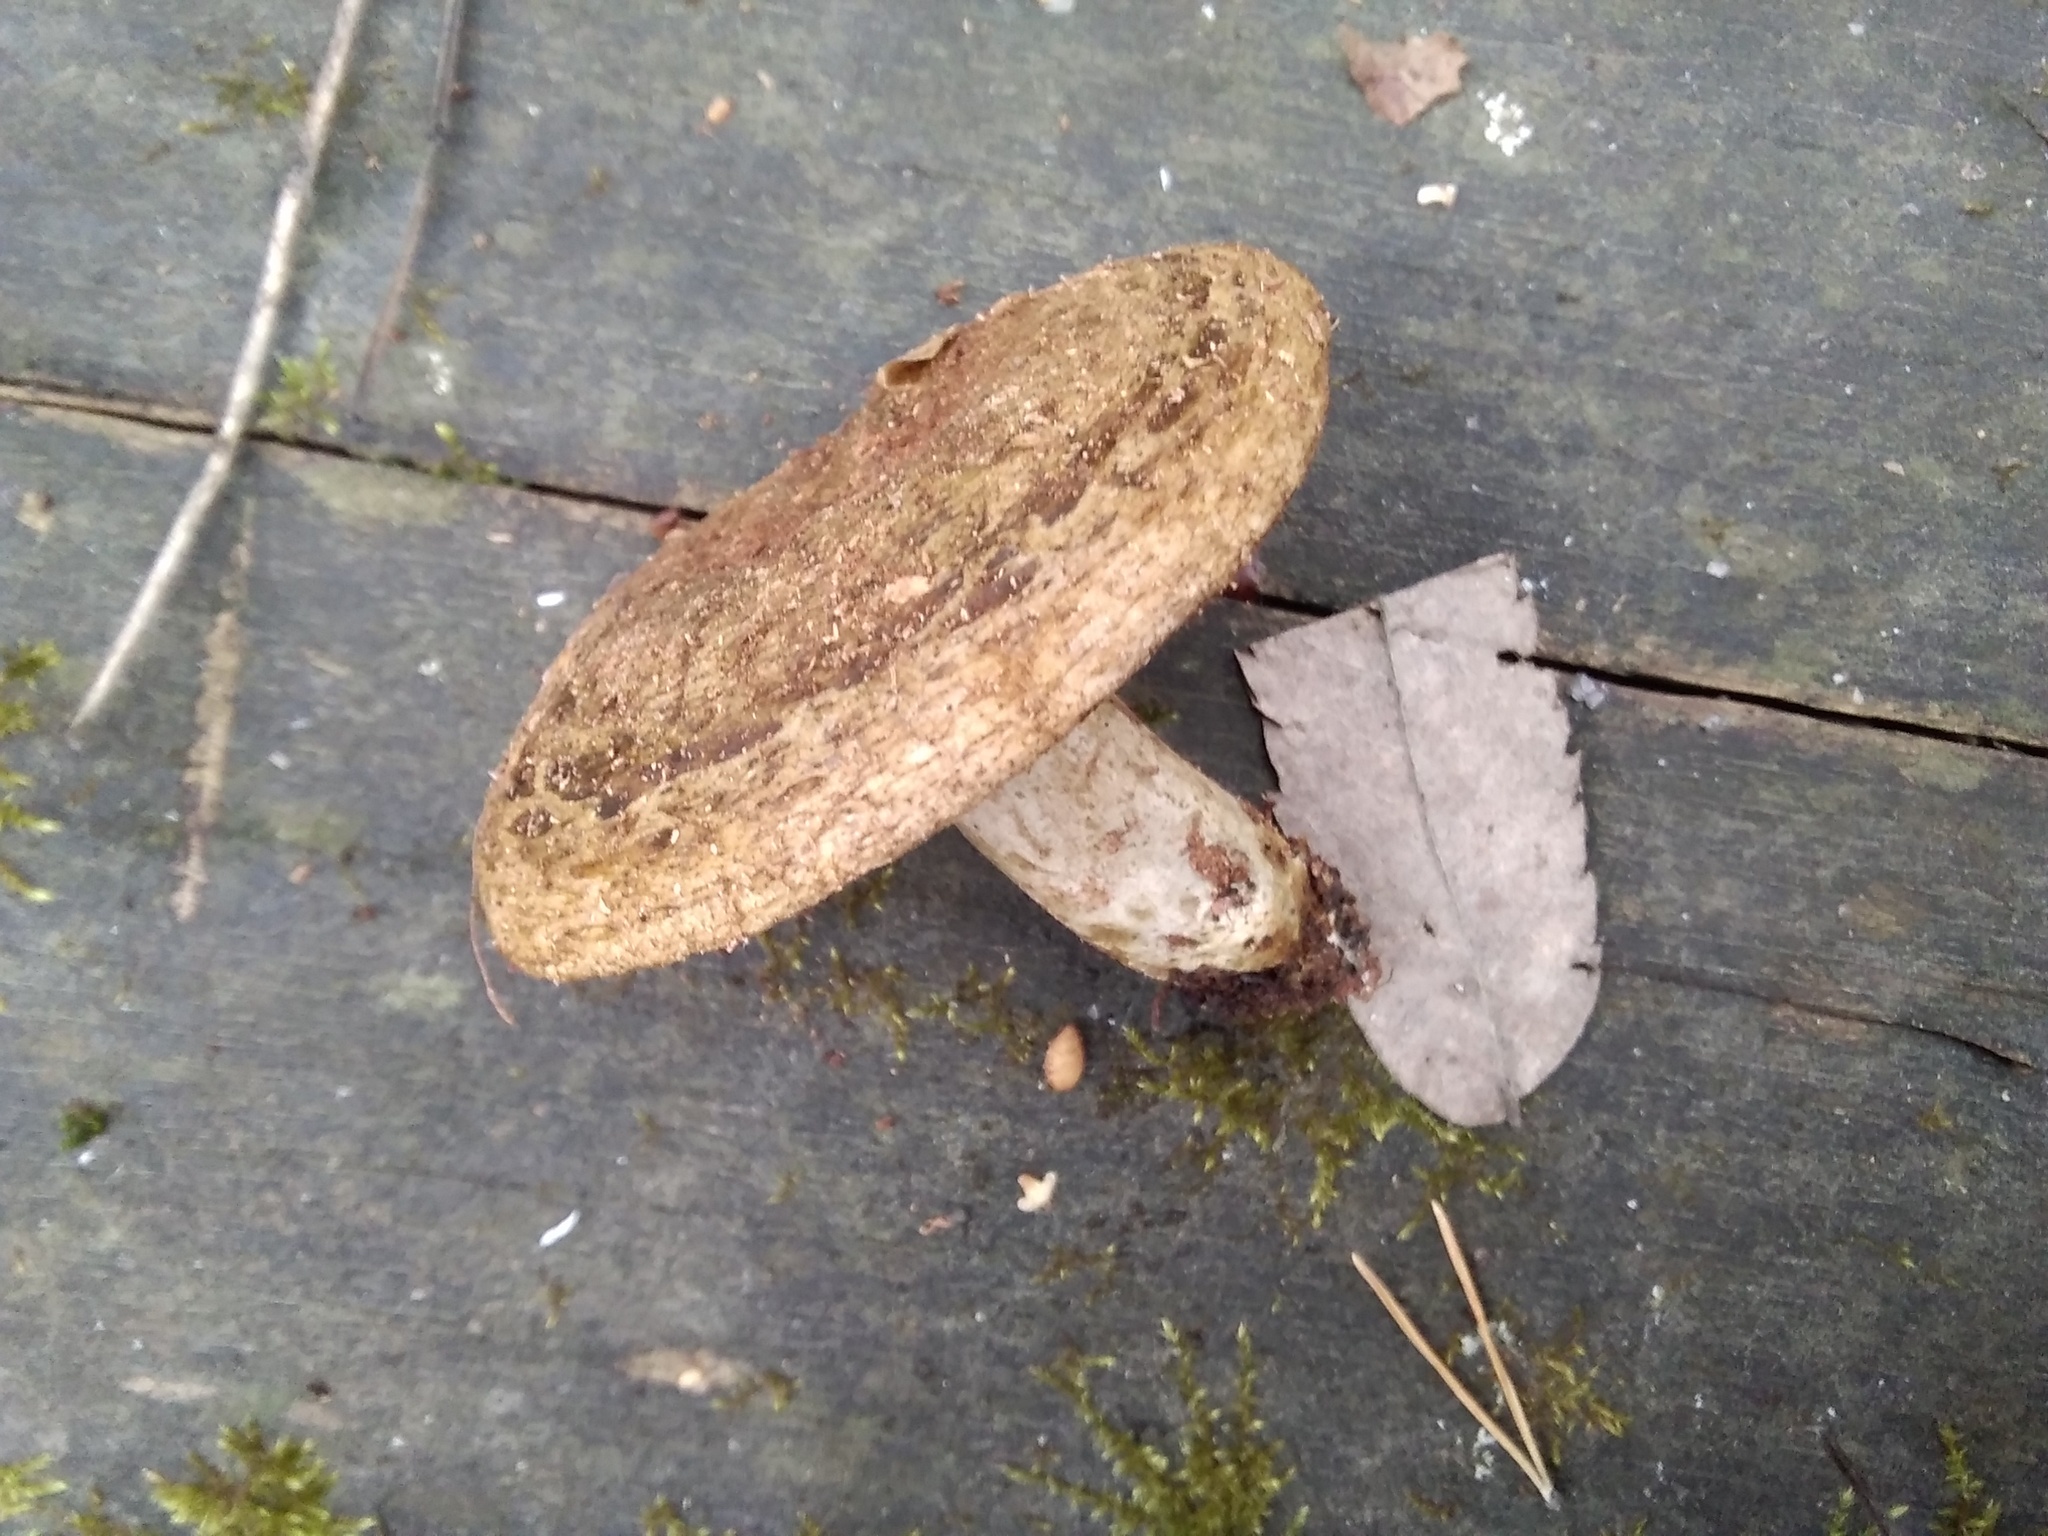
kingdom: Fungi
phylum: Basidiomycota
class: Agaricomycetes
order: Russulales
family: Russulaceae
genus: Lactarius
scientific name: Lactarius turpis
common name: Ugly milk-cap
